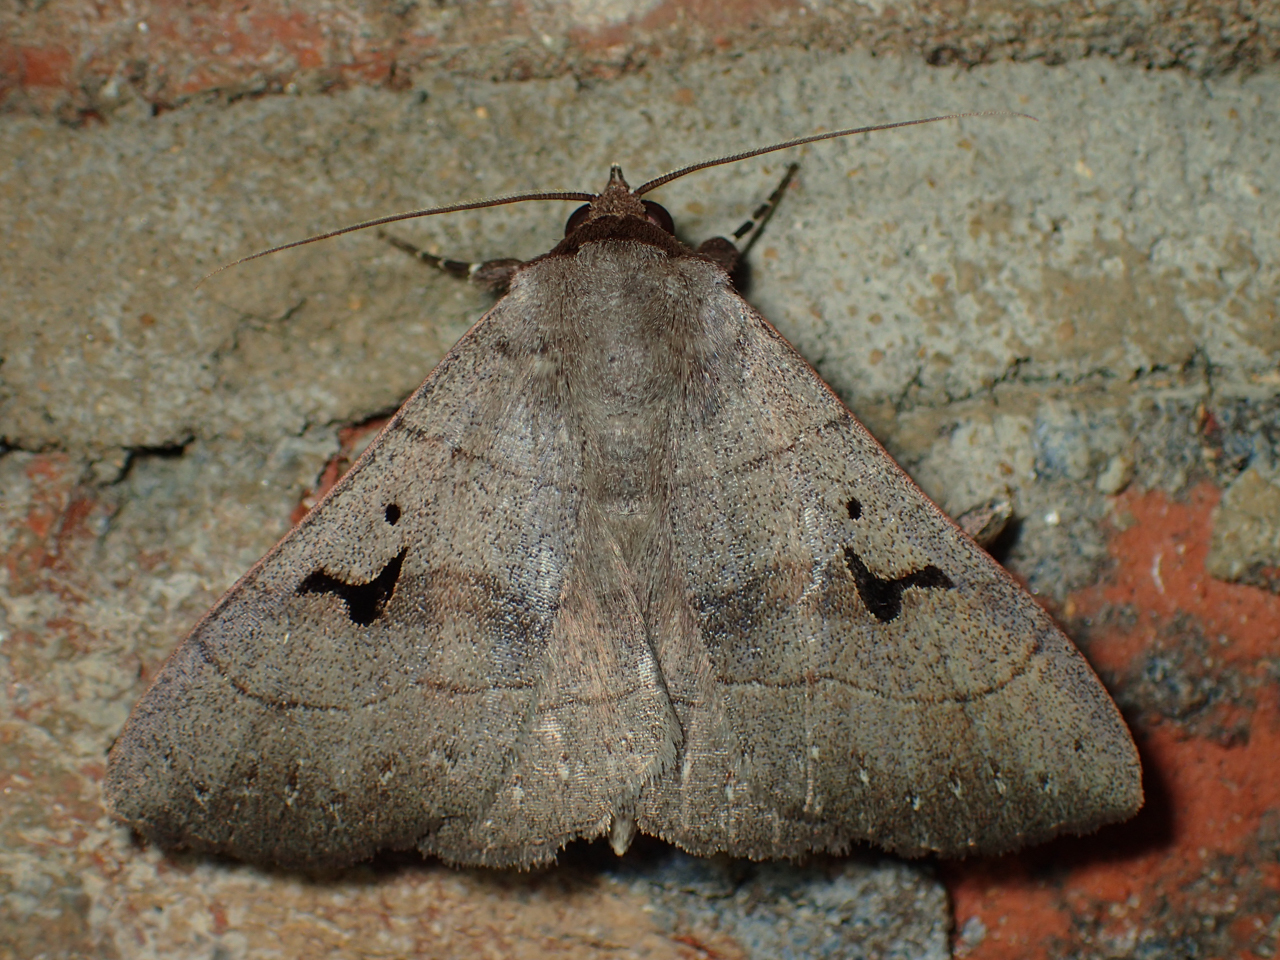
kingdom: Animalia
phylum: Arthropoda
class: Insecta
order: Lepidoptera
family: Erebidae
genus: Panopoda
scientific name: Panopoda carneicosta
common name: Brown panopoda moth
